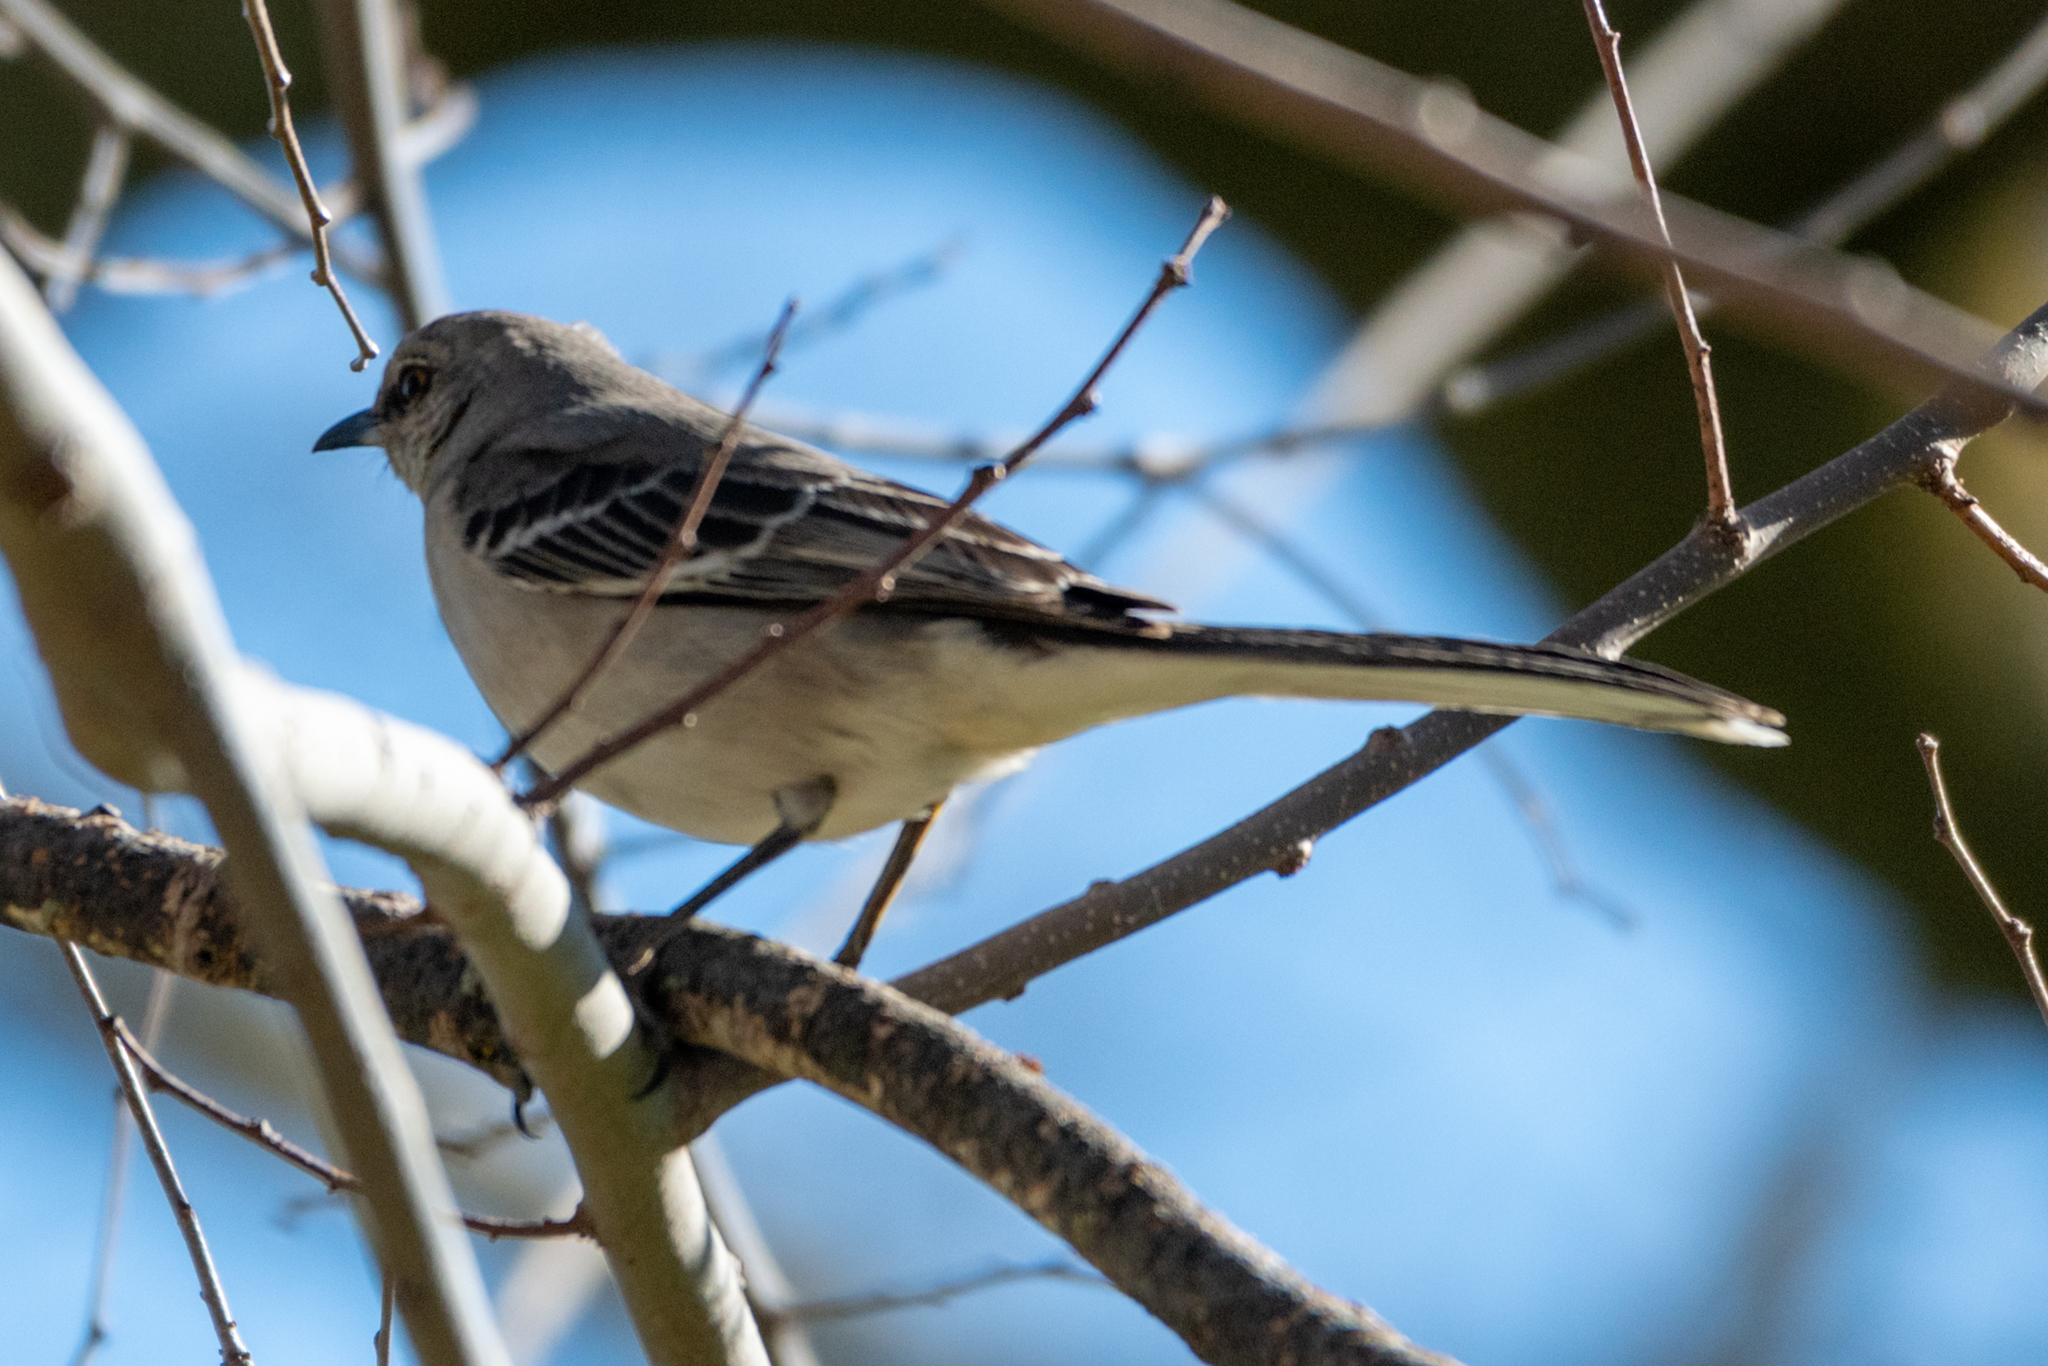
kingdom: Animalia
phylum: Chordata
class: Aves
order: Passeriformes
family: Mimidae
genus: Mimus
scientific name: Mimus polyglottos
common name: Northern mockingbird
